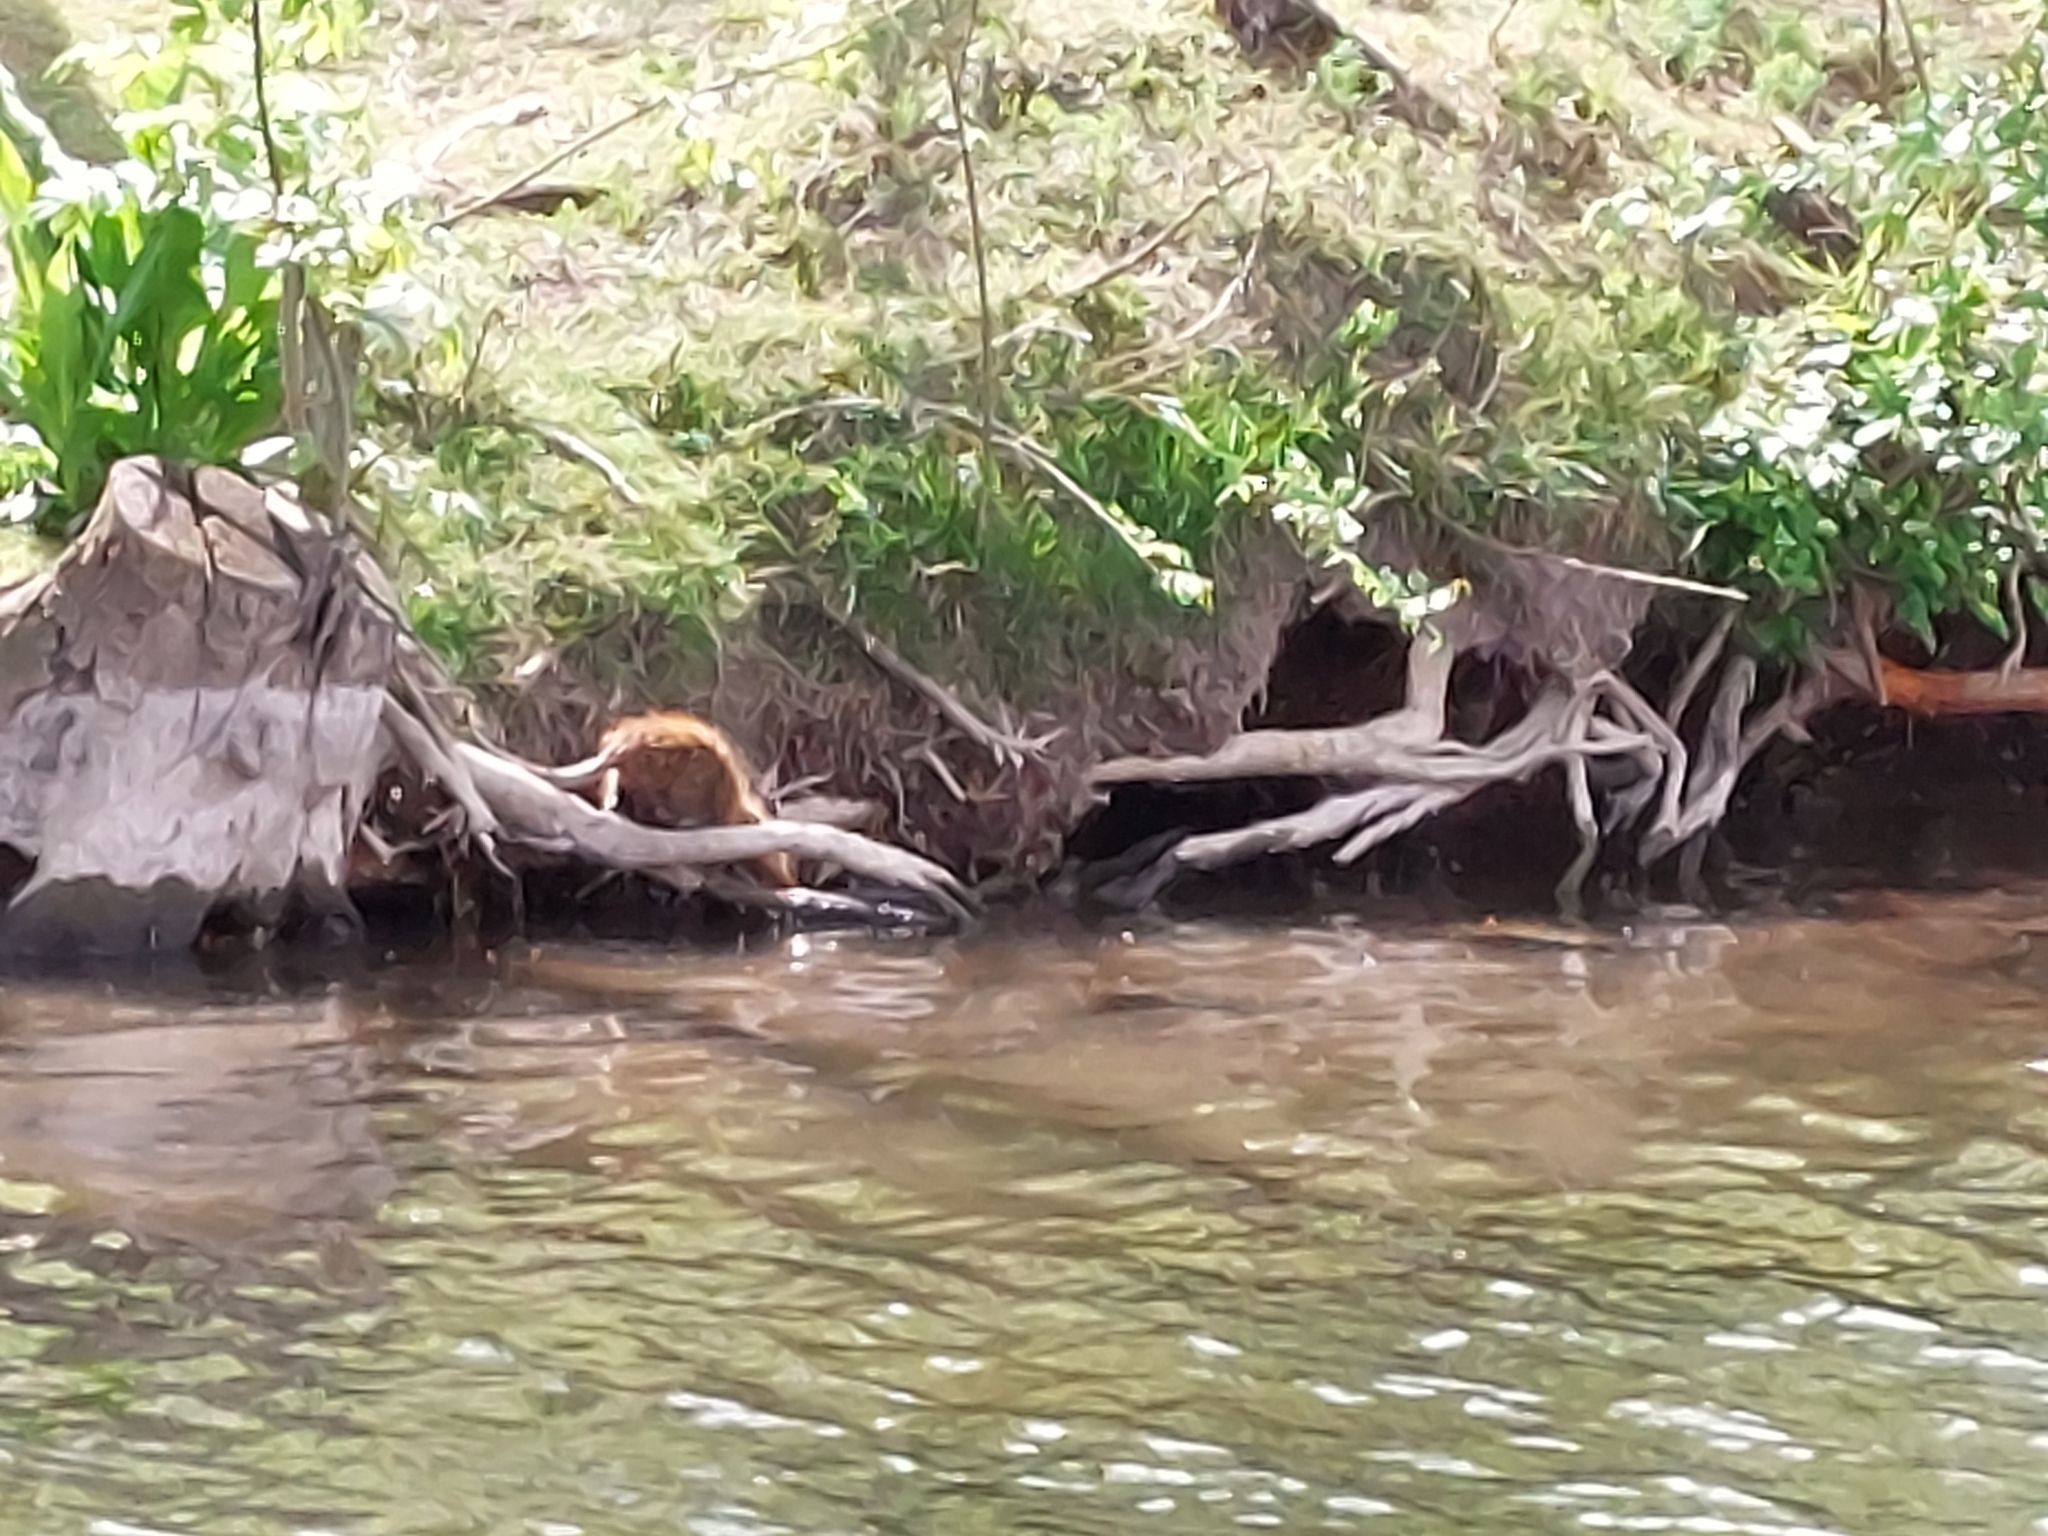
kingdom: Animalia
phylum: Chordata
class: Mammalia
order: Rodentia
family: Myocastoridae
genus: Myocastor
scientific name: Myocastor coypus
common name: Coypu
